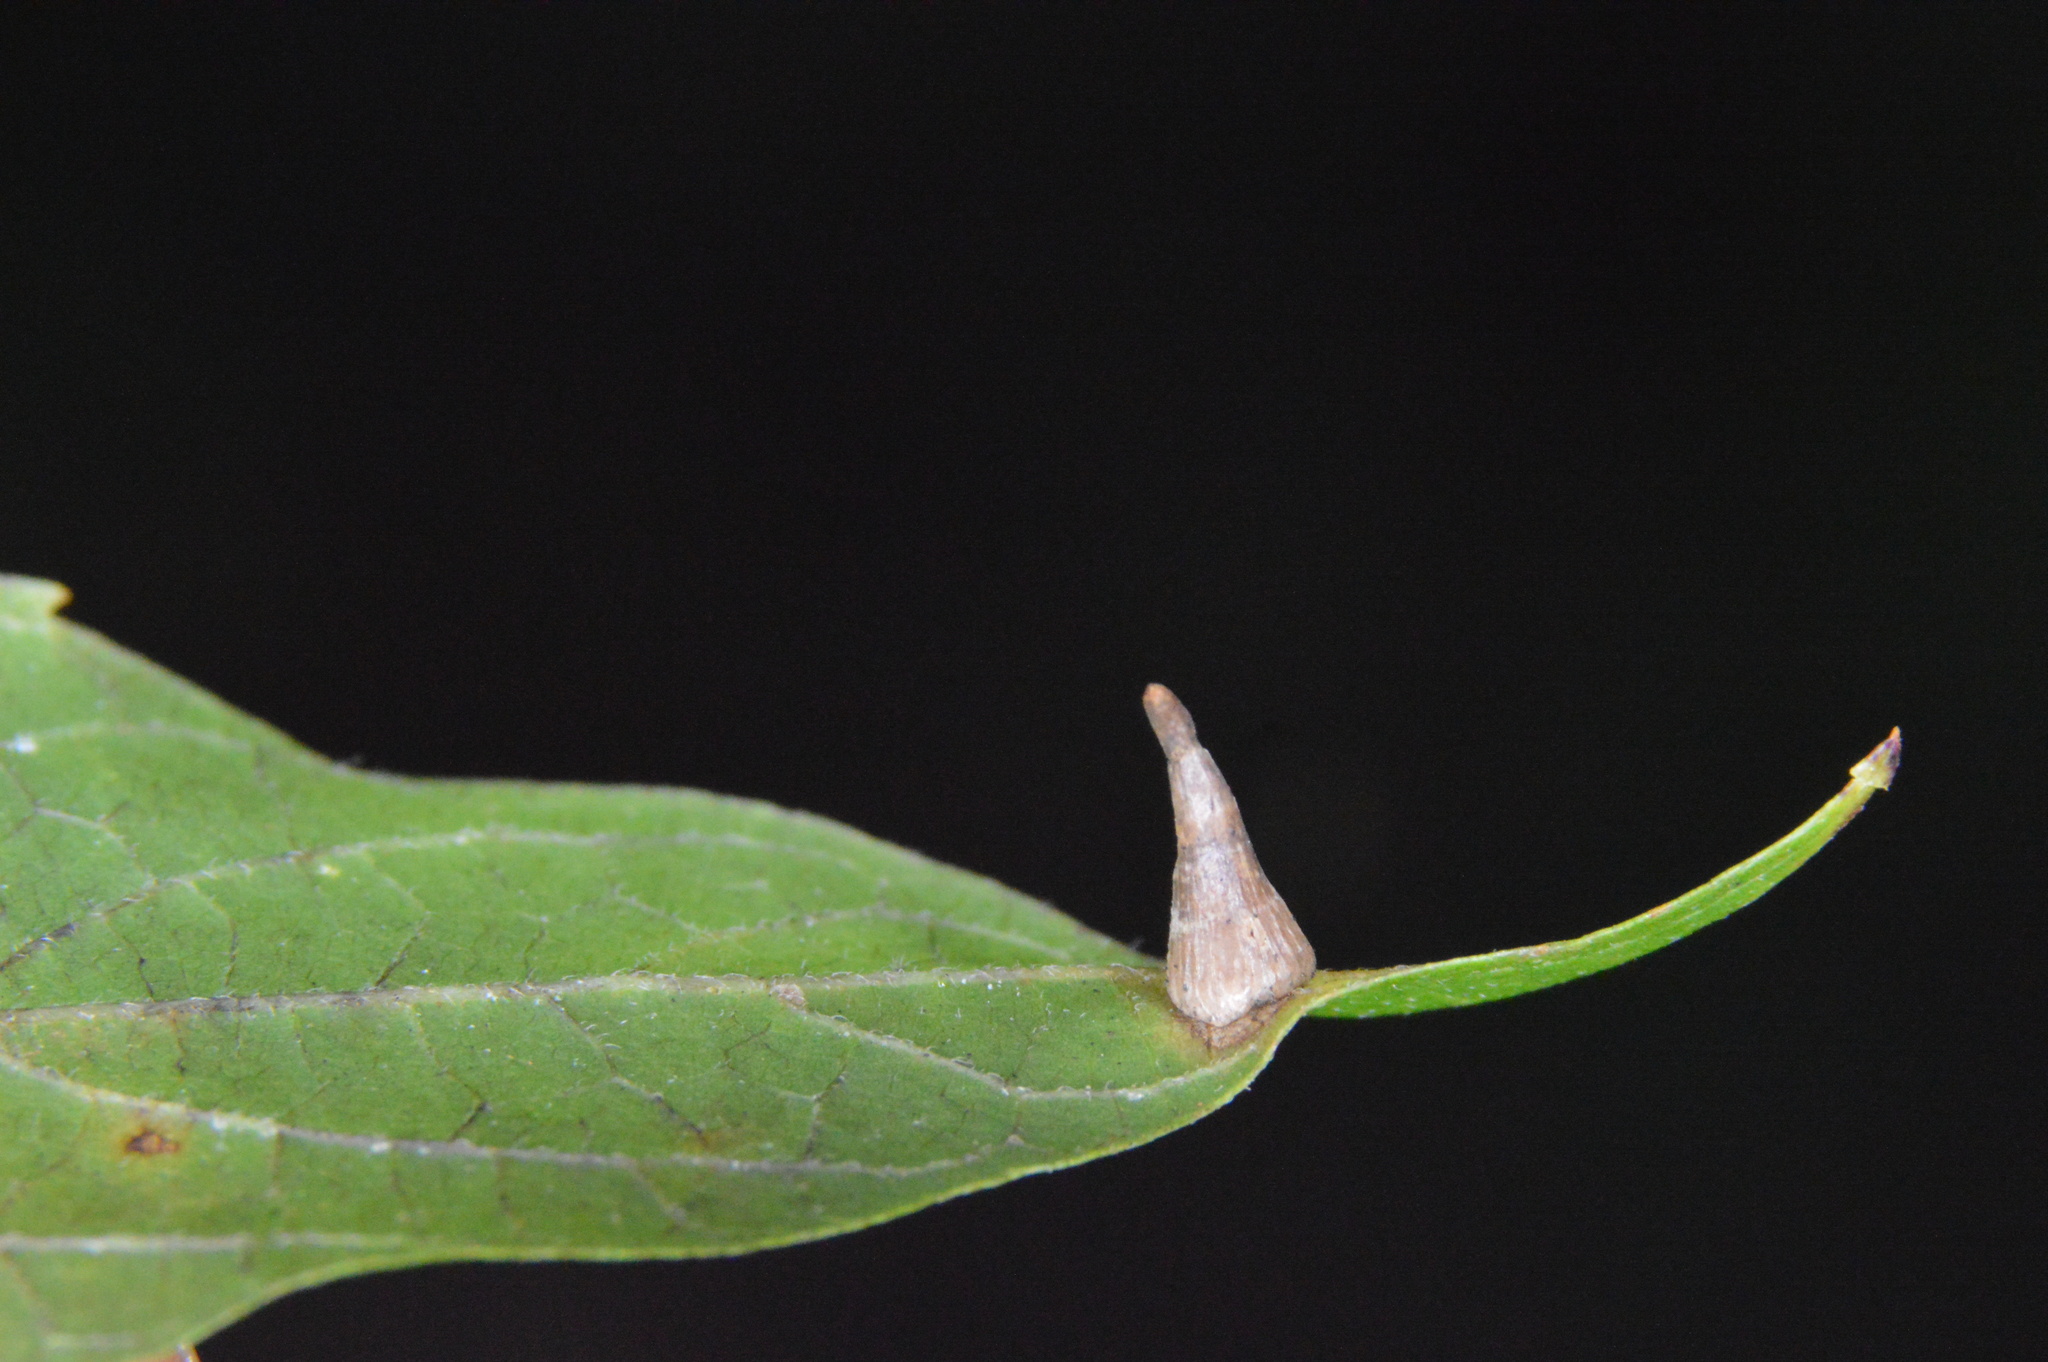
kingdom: Animalia
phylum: Arthropoda
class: Insecta
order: Diptera
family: Cecidomyiidae
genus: Celticecis
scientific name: Celticecis subulata
